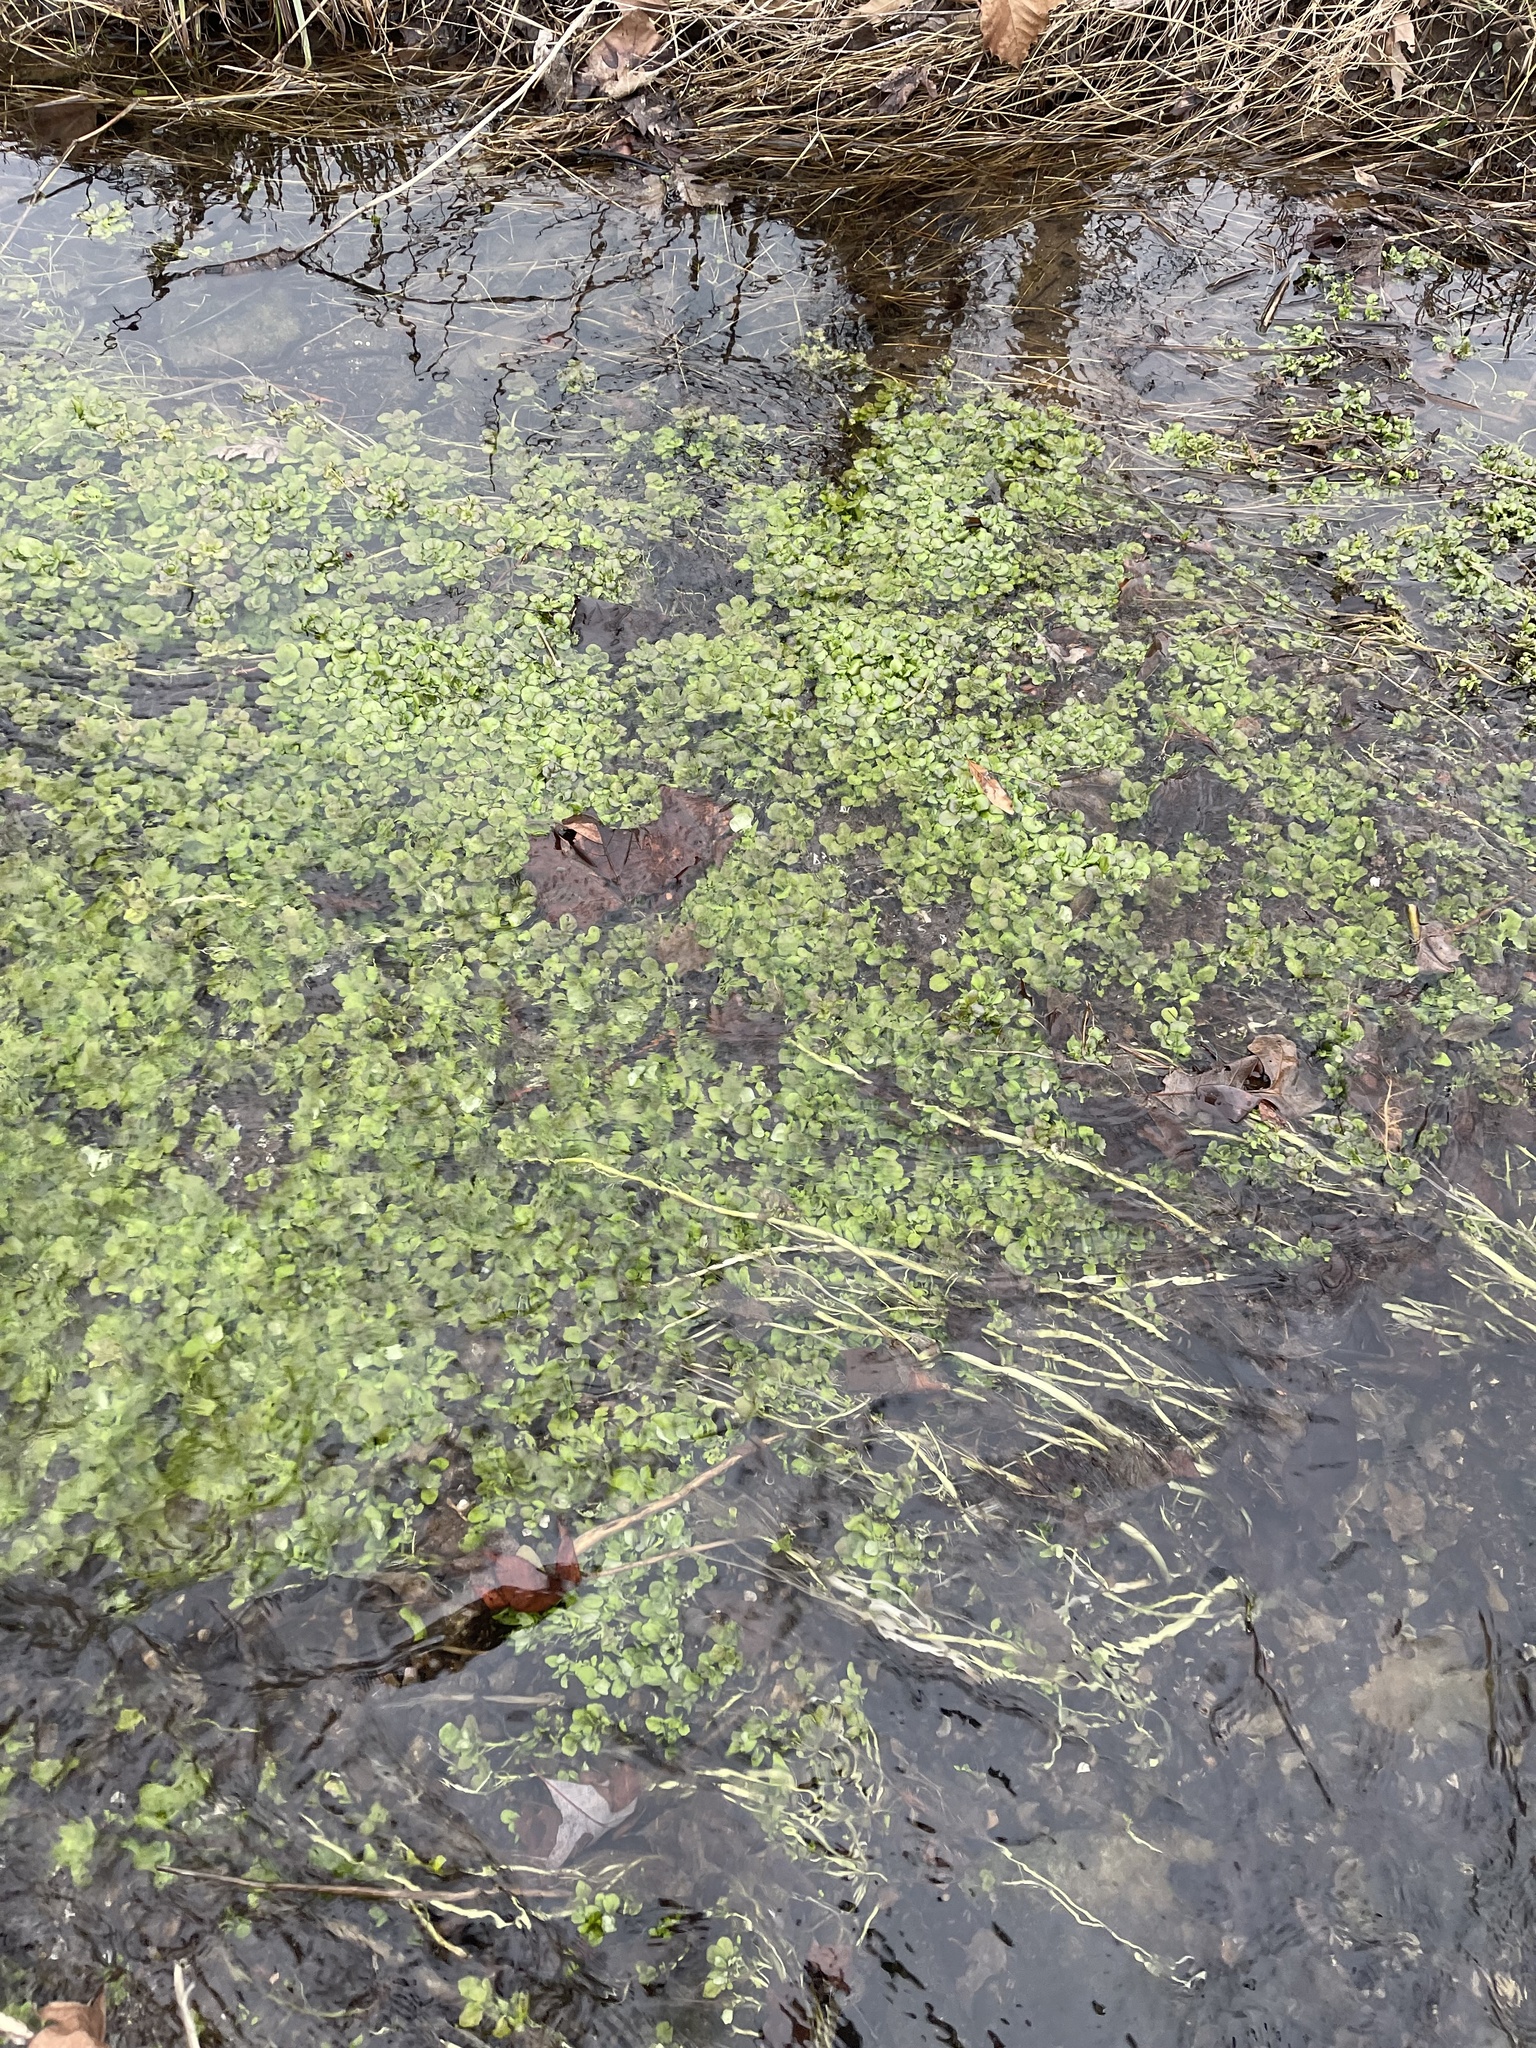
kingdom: Plantae
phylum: Tracheophyta
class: Magnoliopsida
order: Brassicales
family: Brassicaceae
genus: Nasturtium
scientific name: Nasturtium officinale
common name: Watercress
